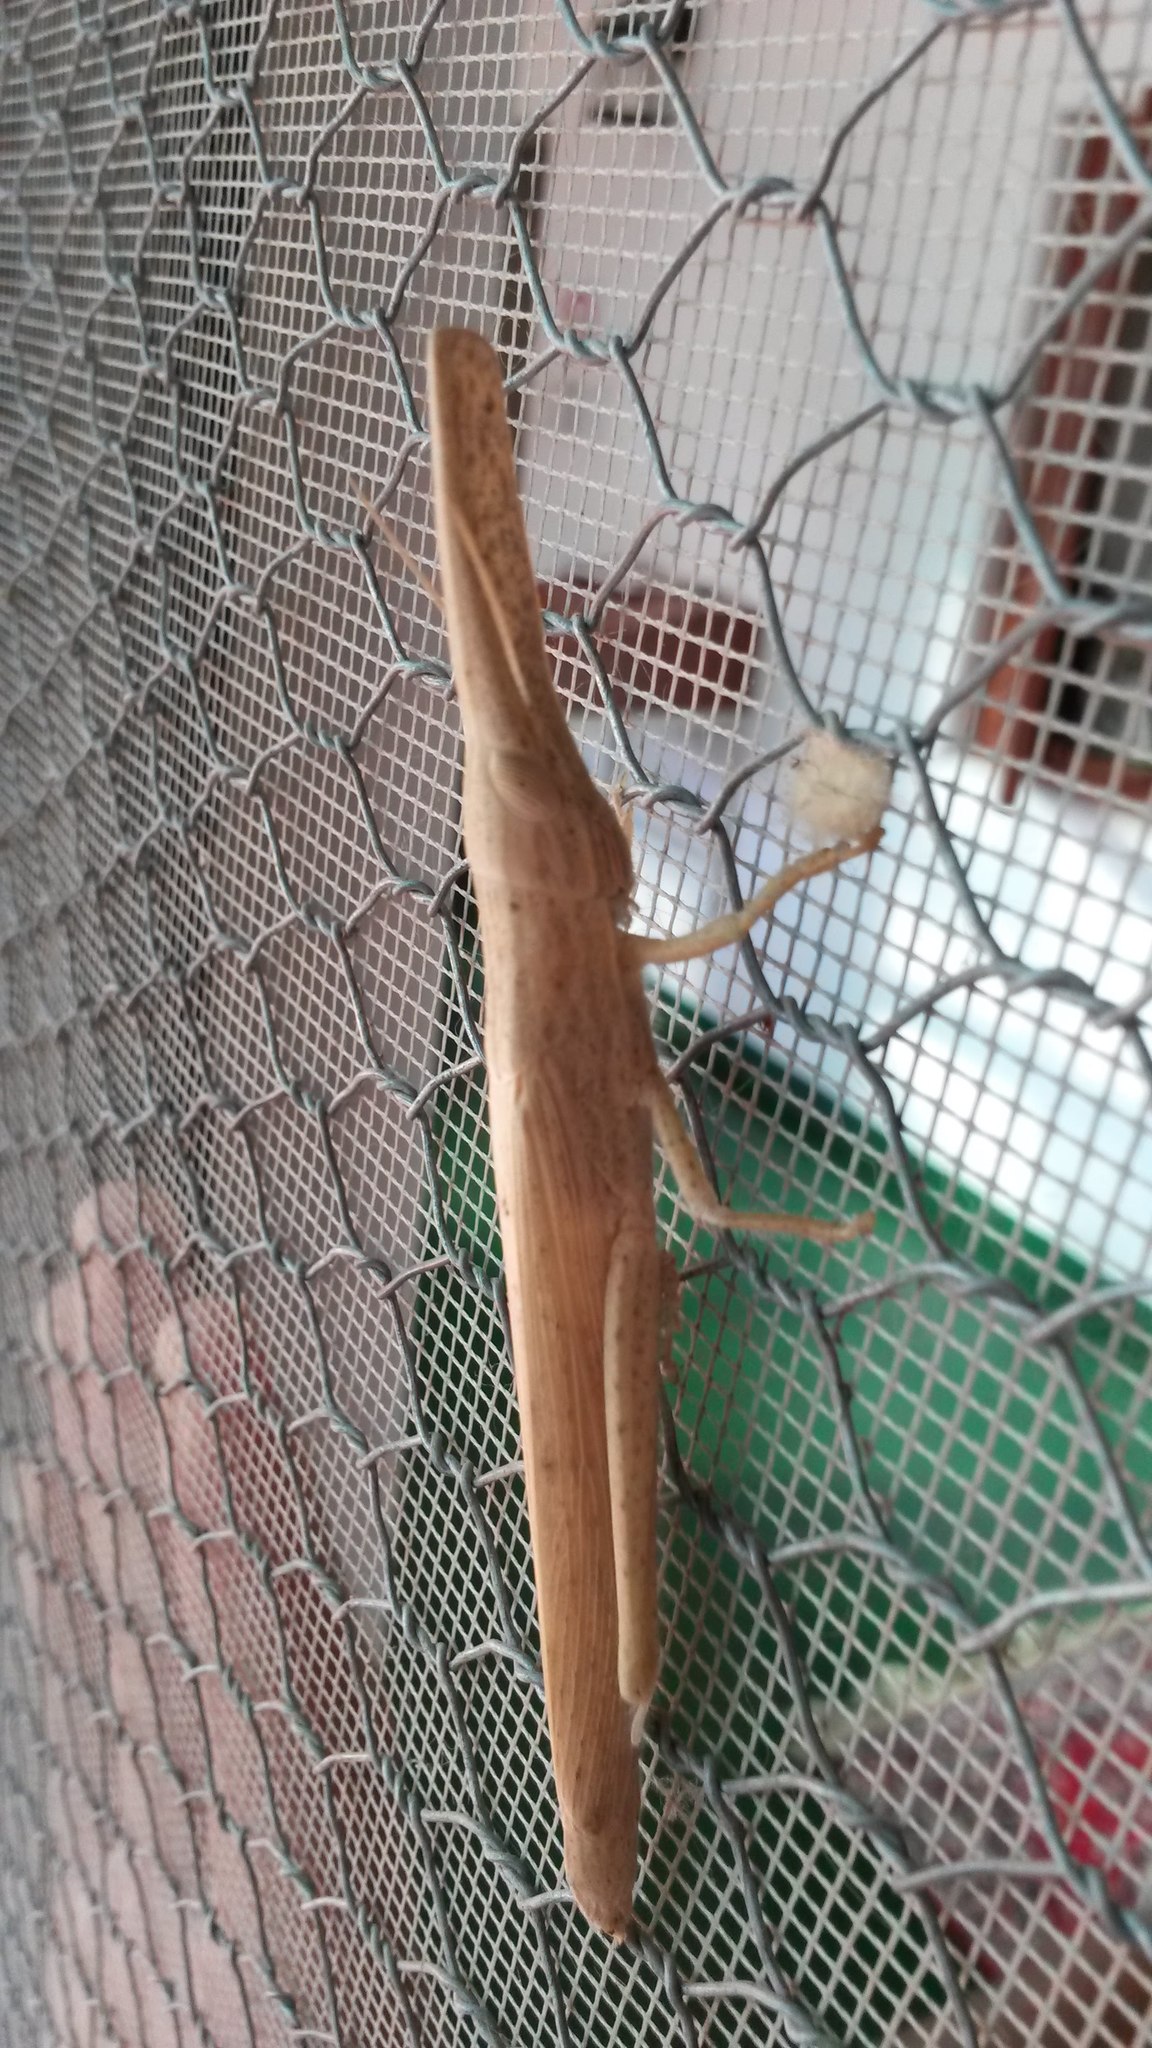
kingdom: Animalia
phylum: Arthropoda
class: Insecta
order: Orthoptera
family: Acrididae
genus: Acanthoxia
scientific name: Acanthoxia gladiator
